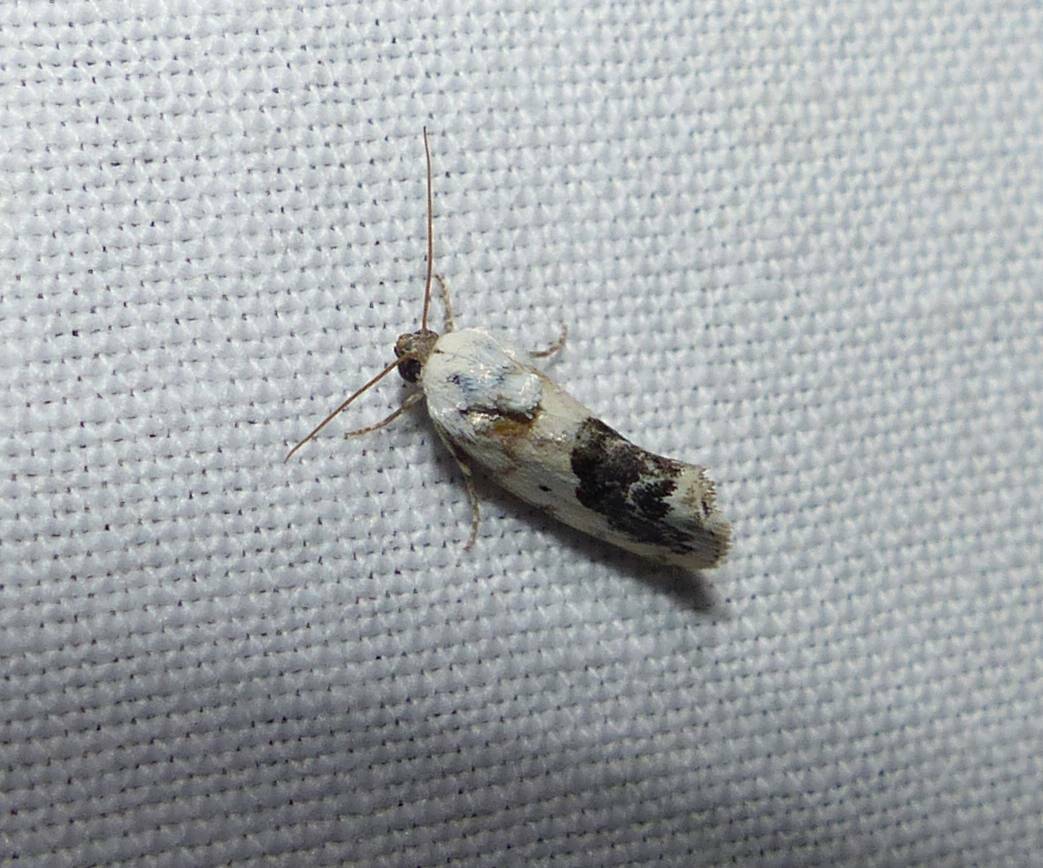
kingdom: Animalia
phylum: Arthropoda
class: Insecta
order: Lepidoptera
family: Noctuidae
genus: Acontia
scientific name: Acontia erastrioides
